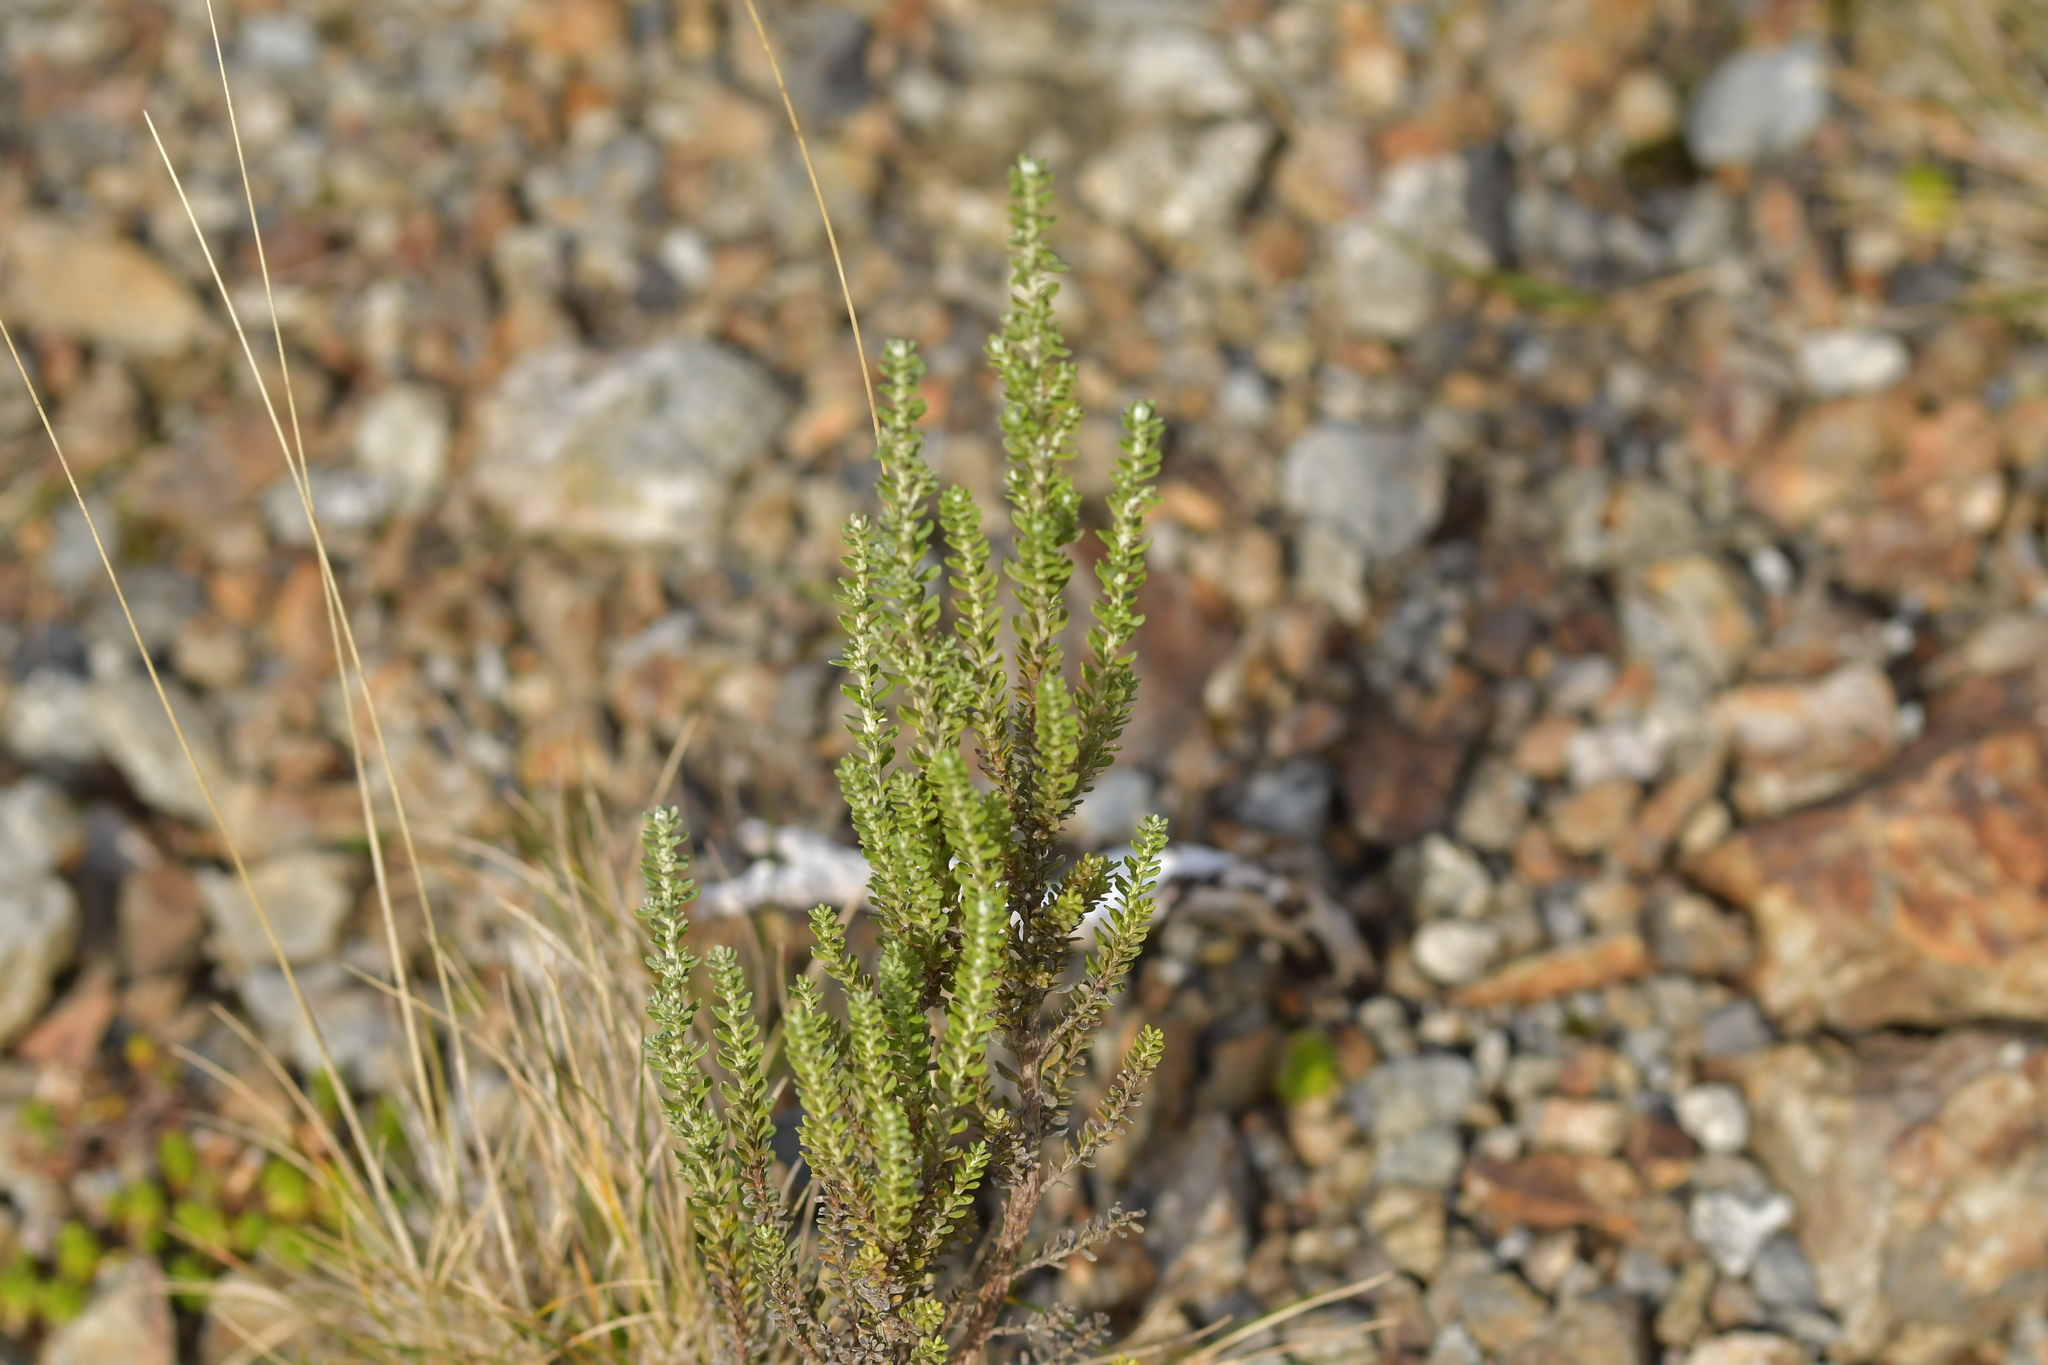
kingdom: Plantae
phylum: Tracheophyta
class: Magnoliopsida
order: Asterales
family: Asteraceae
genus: Ozothamnus
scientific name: Ozothamnus leptophyllus
